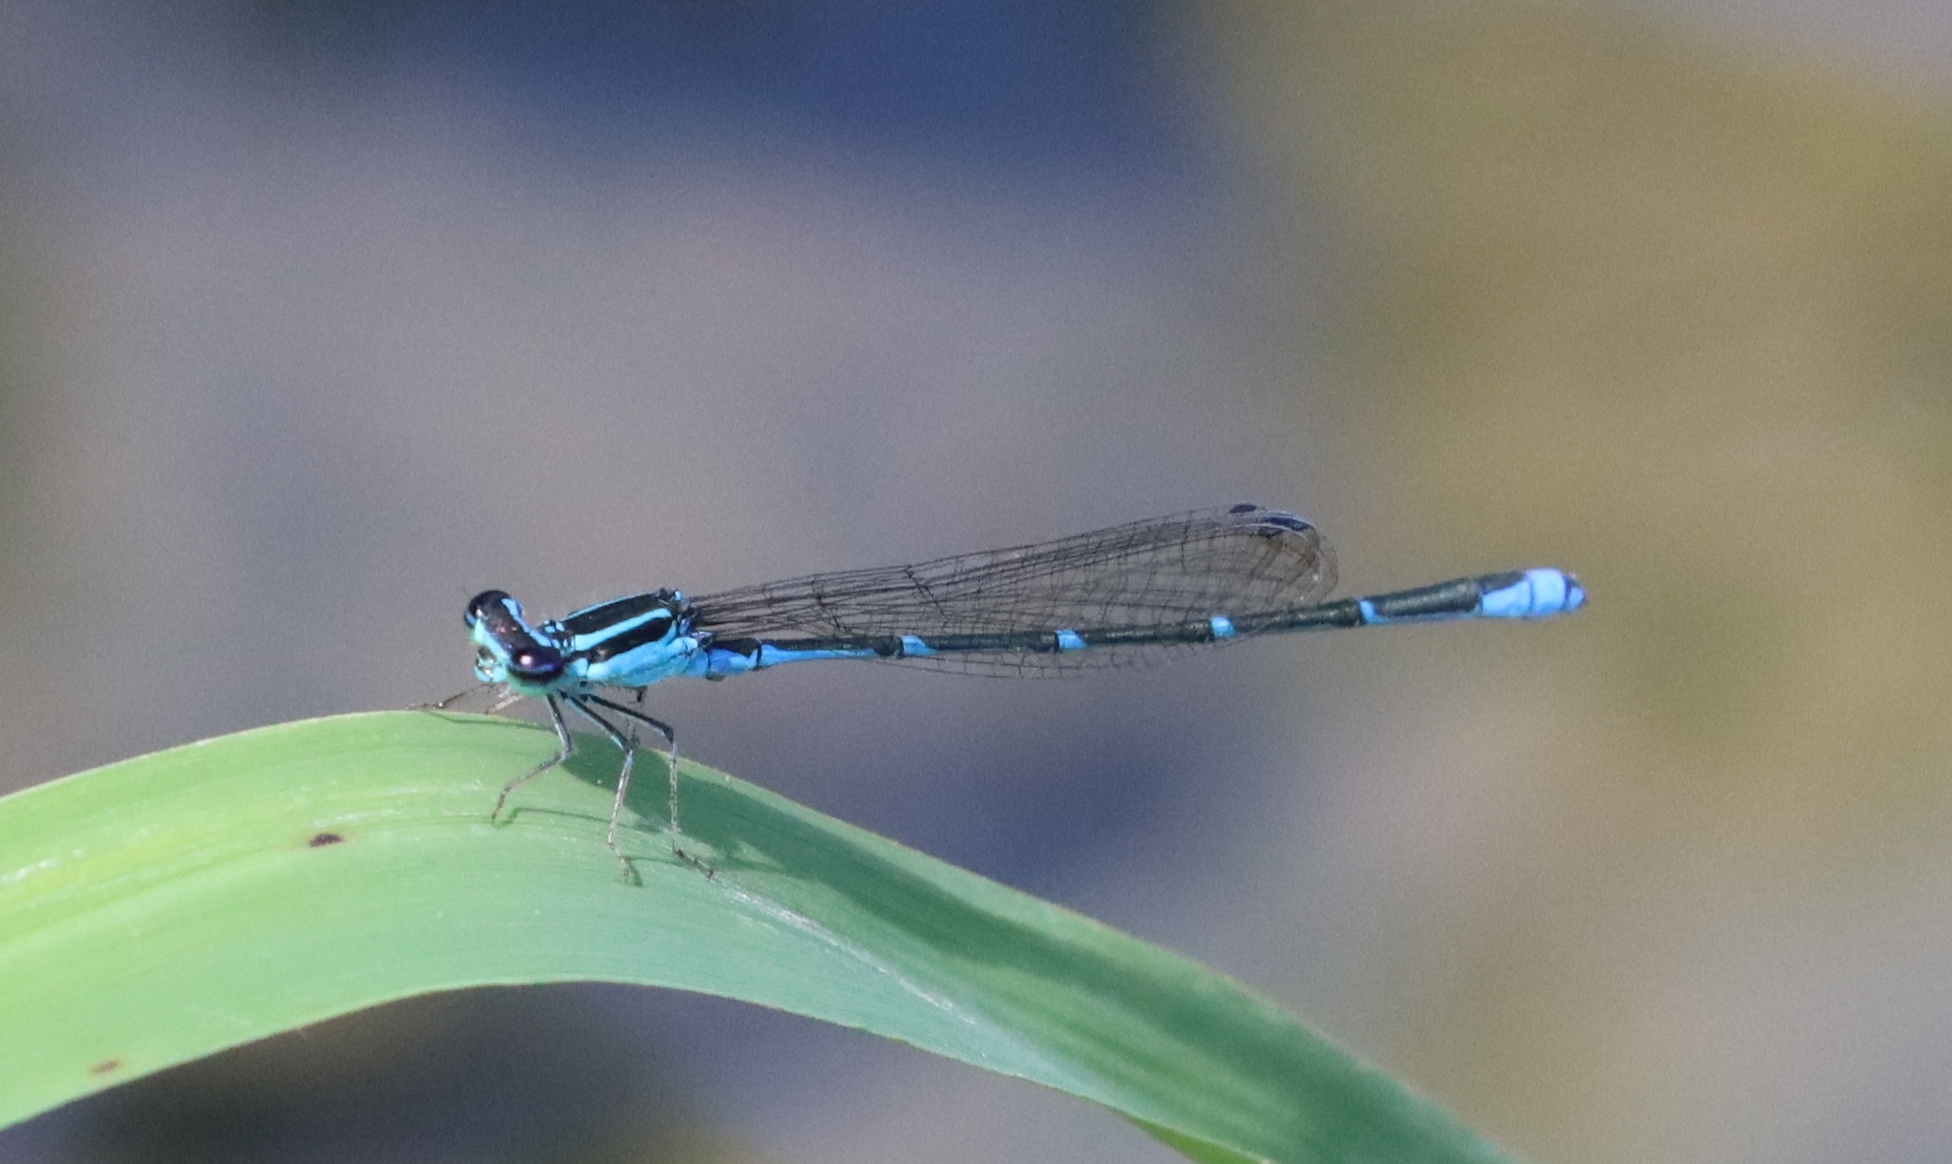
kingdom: Animalia
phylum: Arthropoda
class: Insecta
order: Odonata
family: Coenagrionidae
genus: Enallagma
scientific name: Enallagma exsulans
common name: Stream bluet
